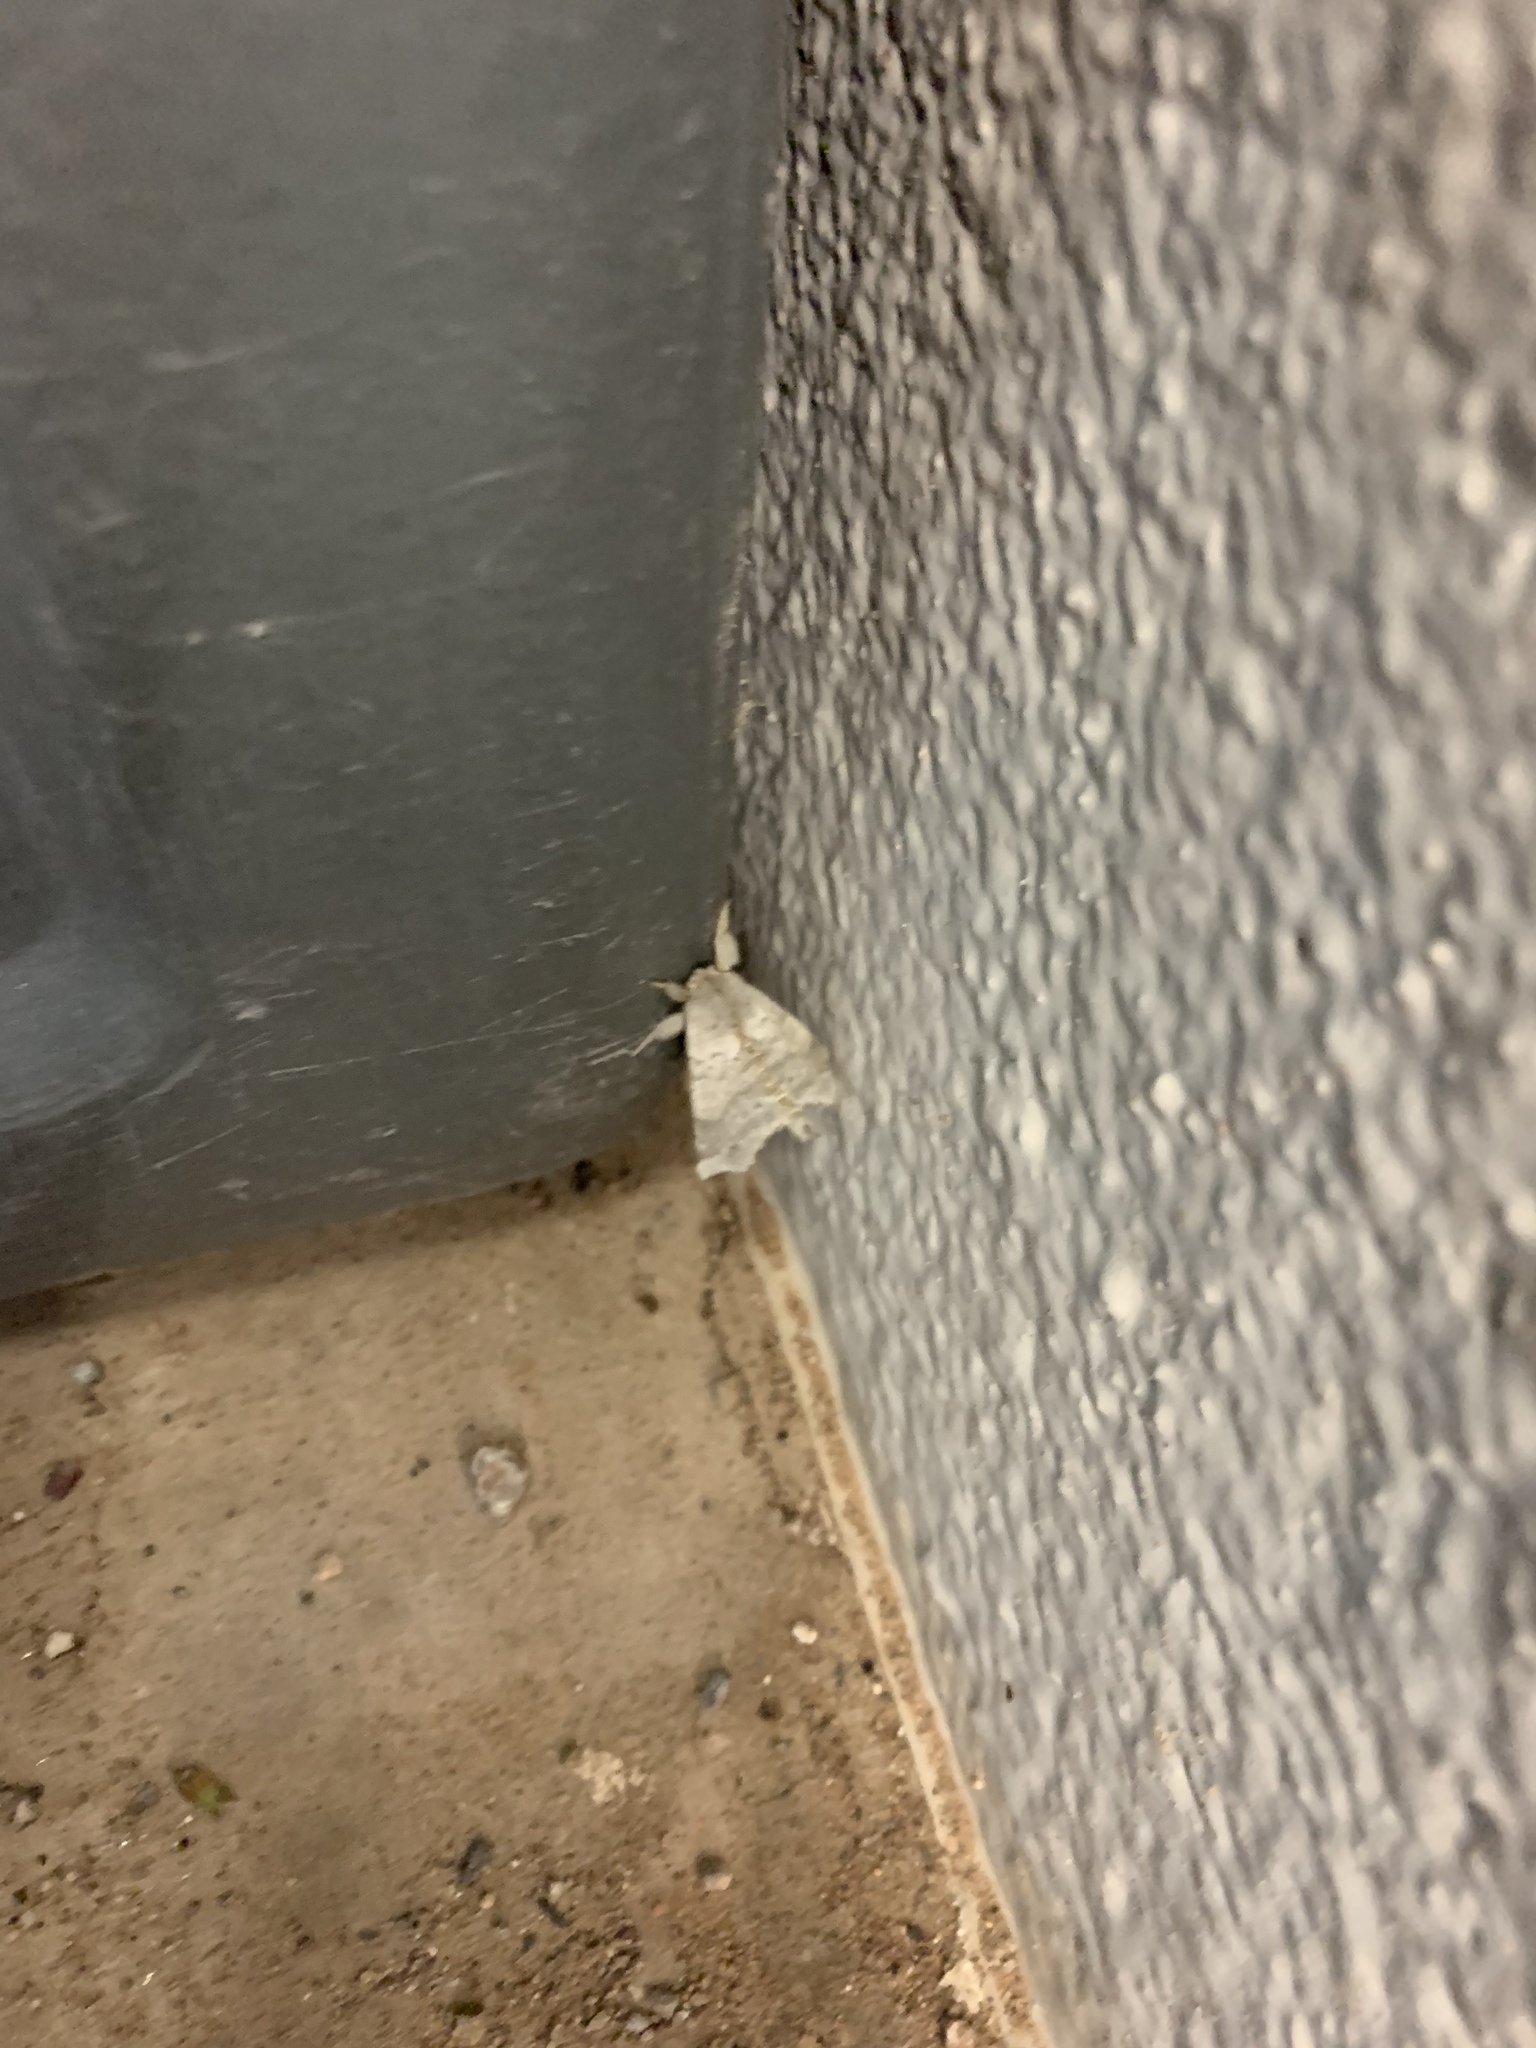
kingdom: Animalia
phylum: Arthropoda
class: Insecta
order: Lepidoptera
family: Apatelodidae
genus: Olceclostera
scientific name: Olceclostera angelica
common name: Angel moth
